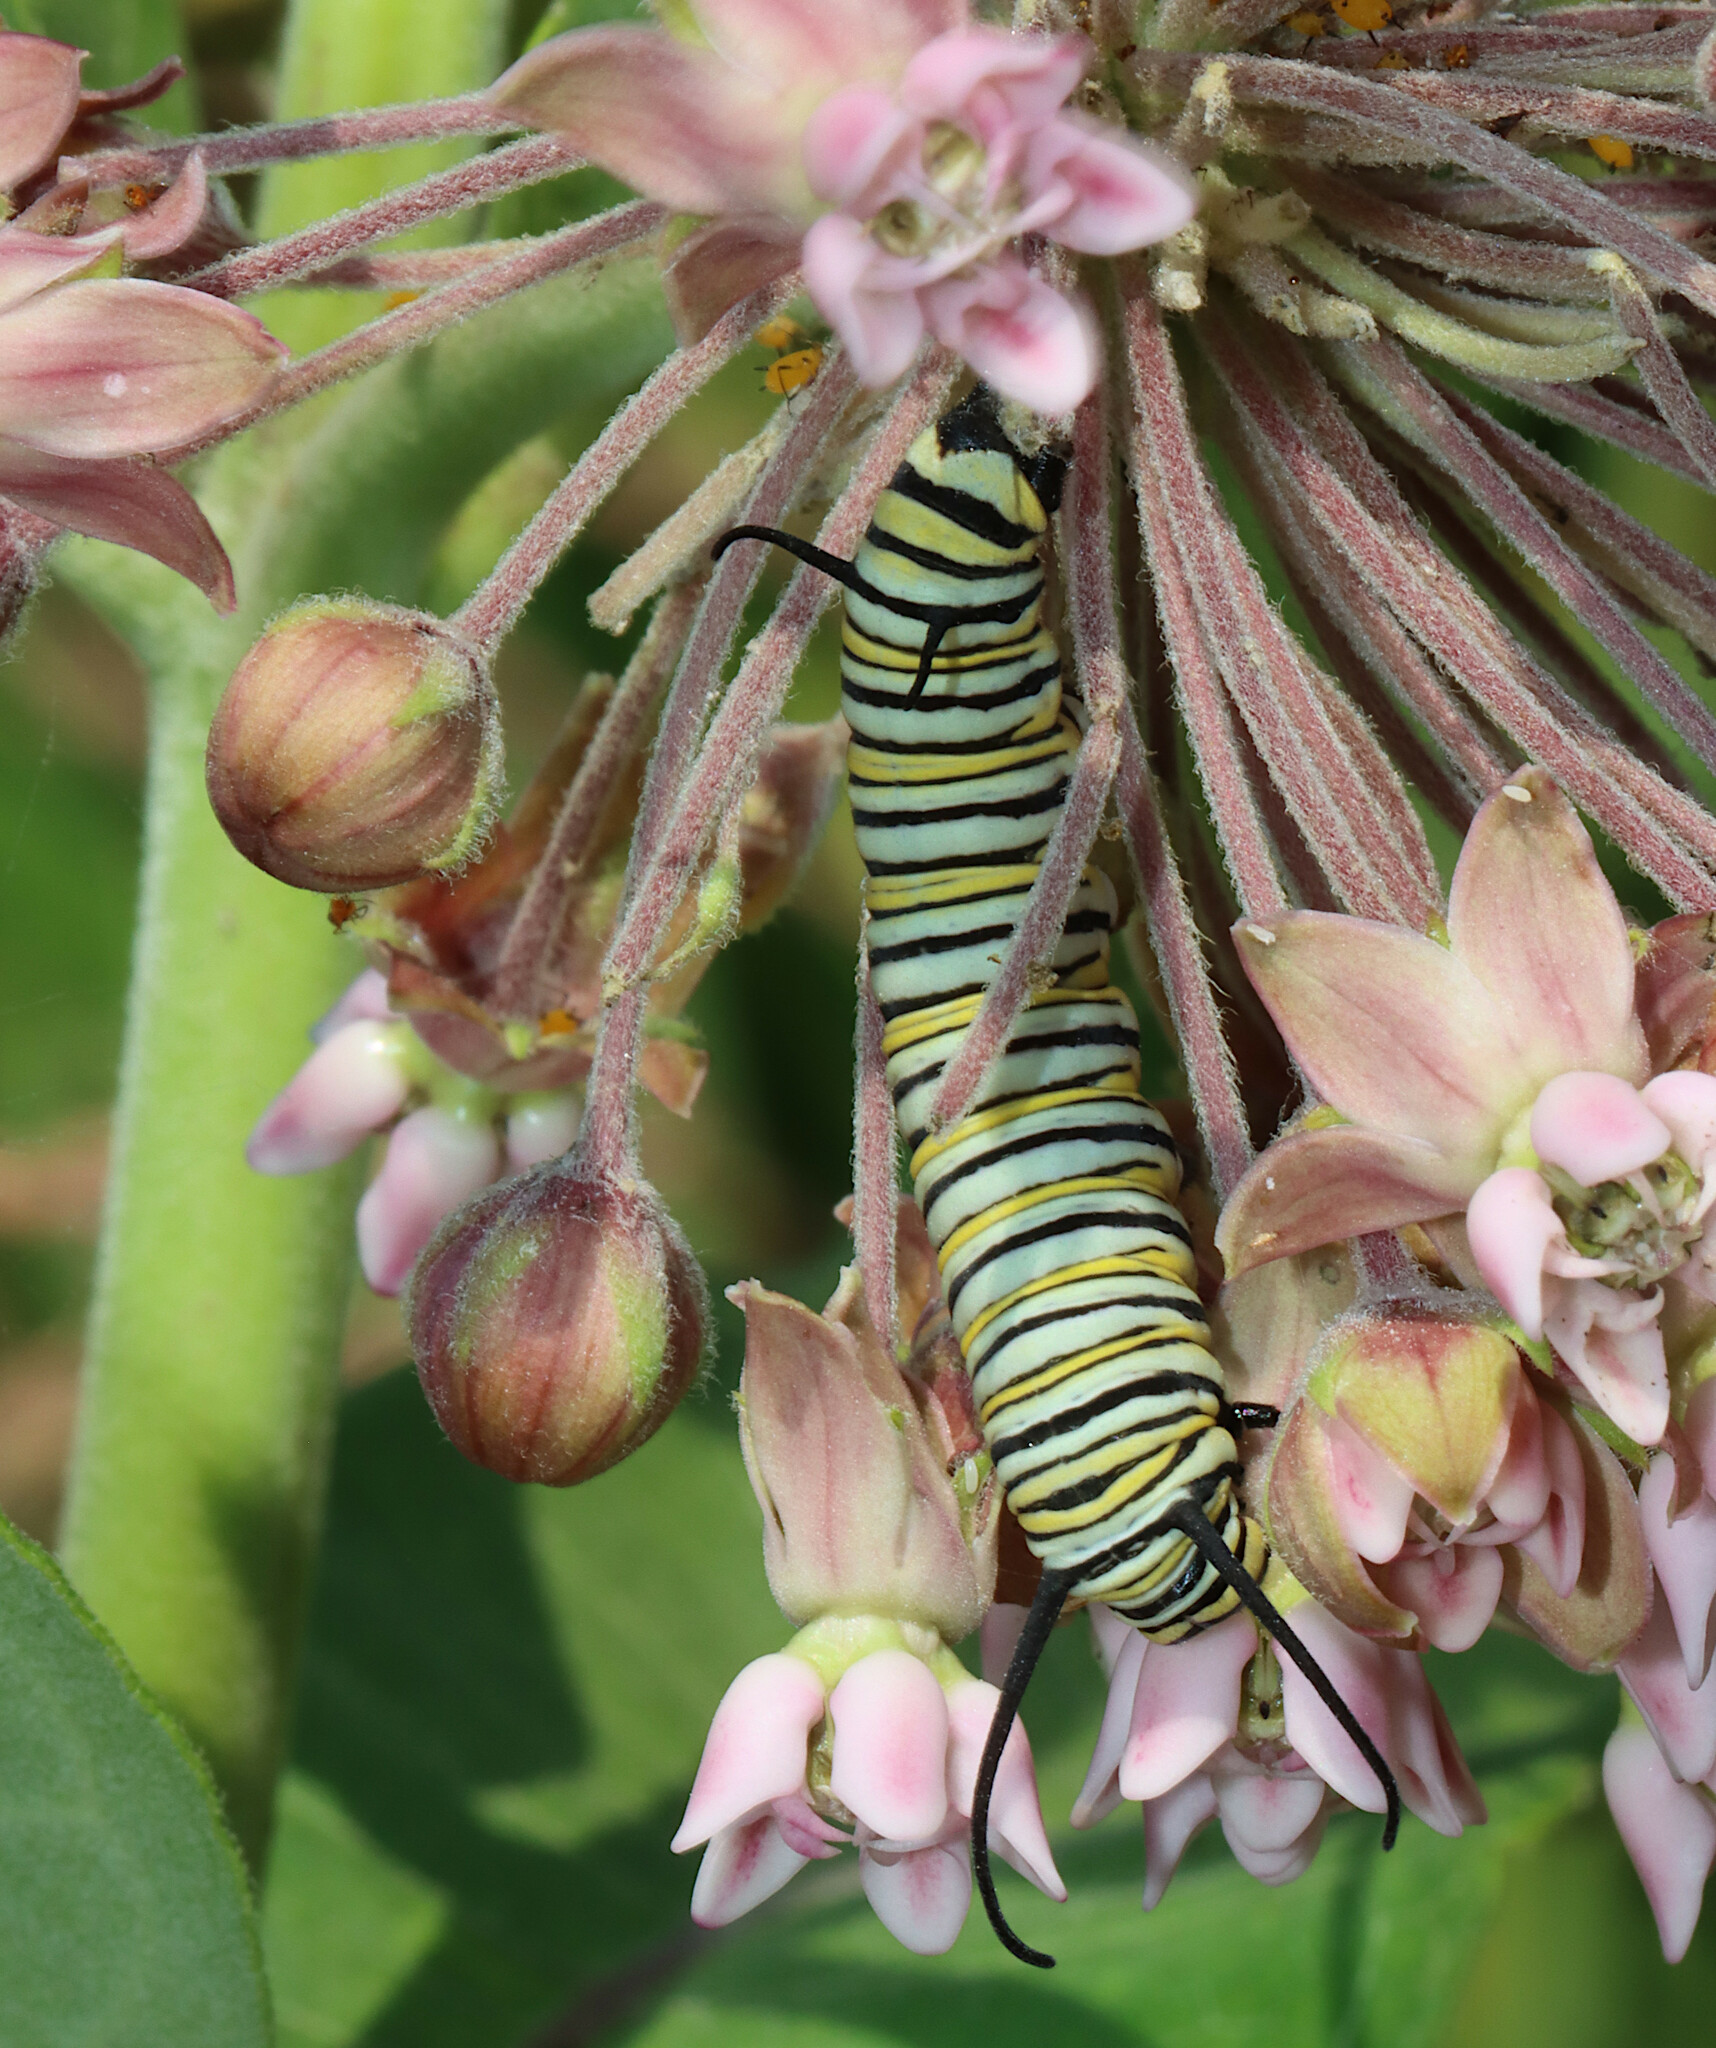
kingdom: Animalia
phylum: Arthropoda
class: Insecta
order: Lepidoptera
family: Nymphalidae
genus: Danaus
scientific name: Danaus plexippus
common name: Monarch
